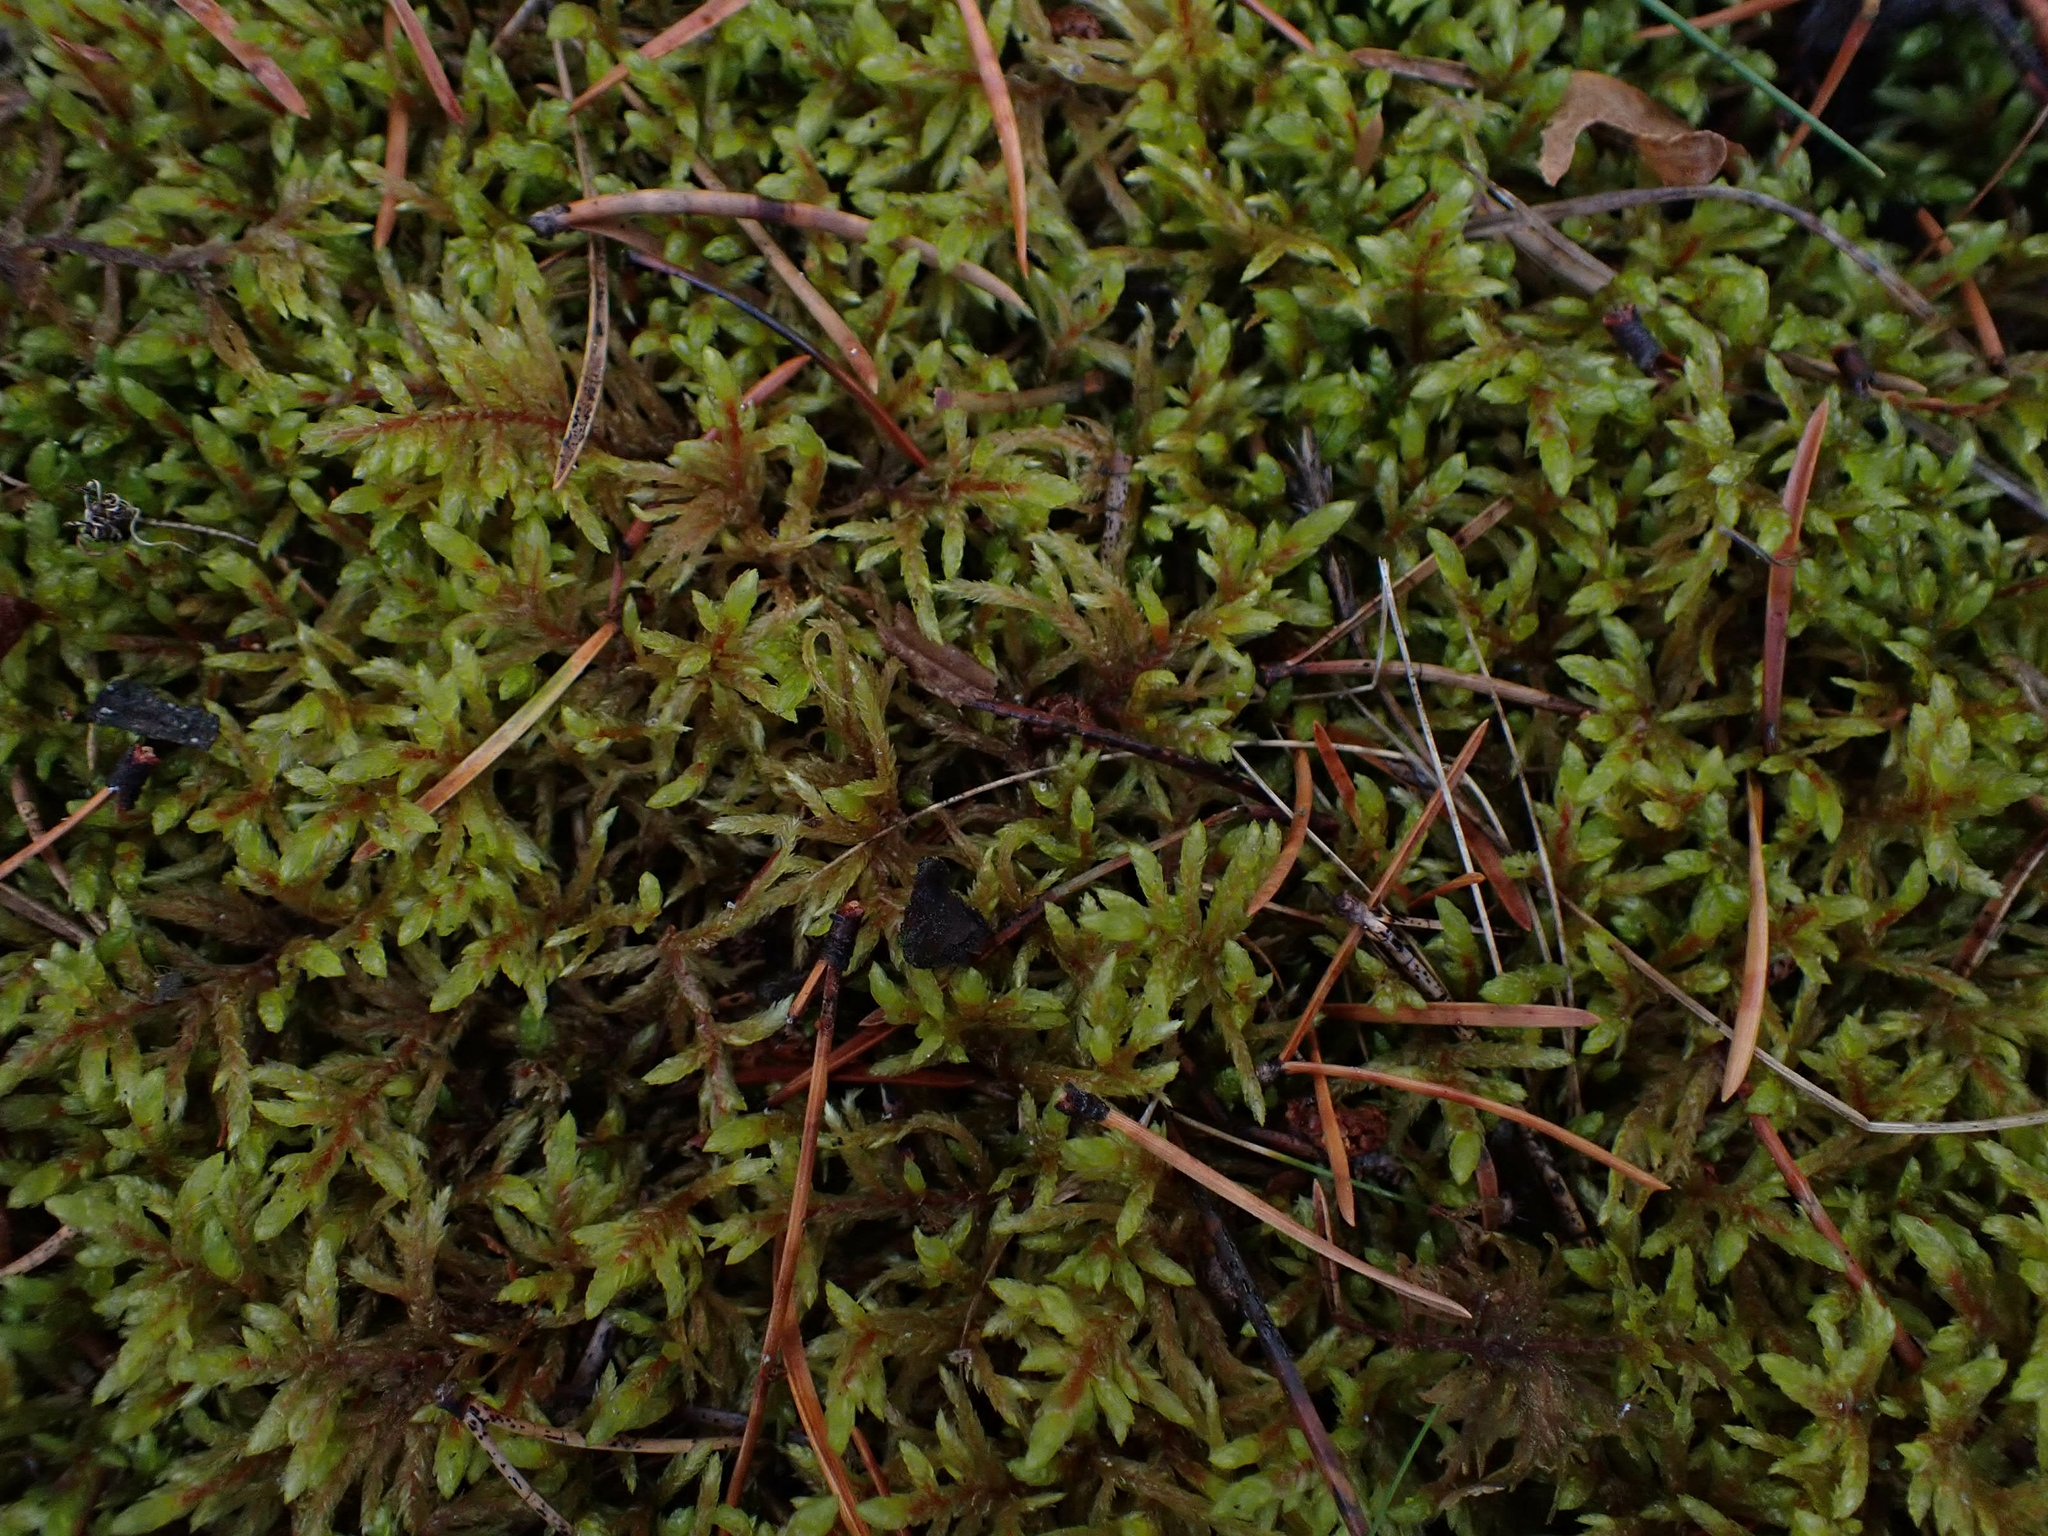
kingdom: Plantae
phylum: Bryophyta
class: Bryopsida
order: Hypnales
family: Hylocomiaceae
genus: Pleurozium
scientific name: Pleurozium schreberi
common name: Red-stemmed feather moss
